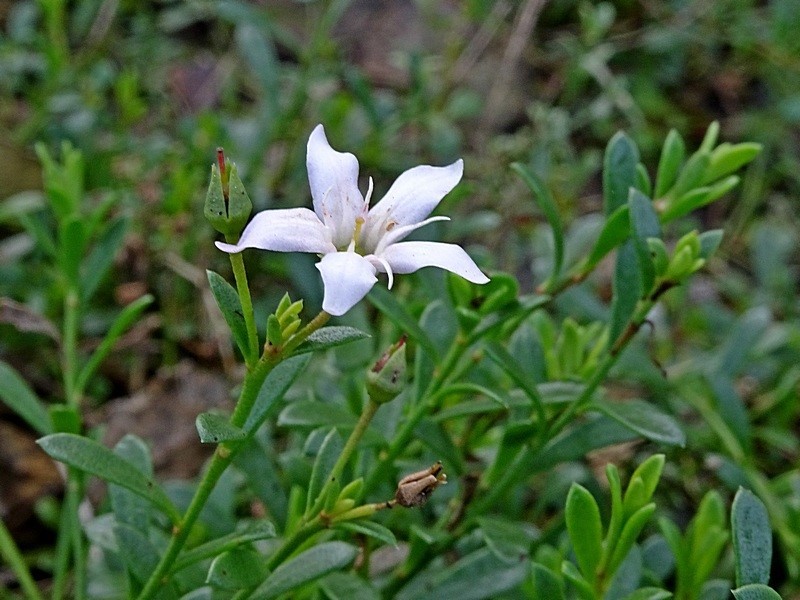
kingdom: Plantae
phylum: Tracheophyta
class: Magnoliopsida
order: Ericales
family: Primulaceae
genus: Samolus
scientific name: Samolus repens
